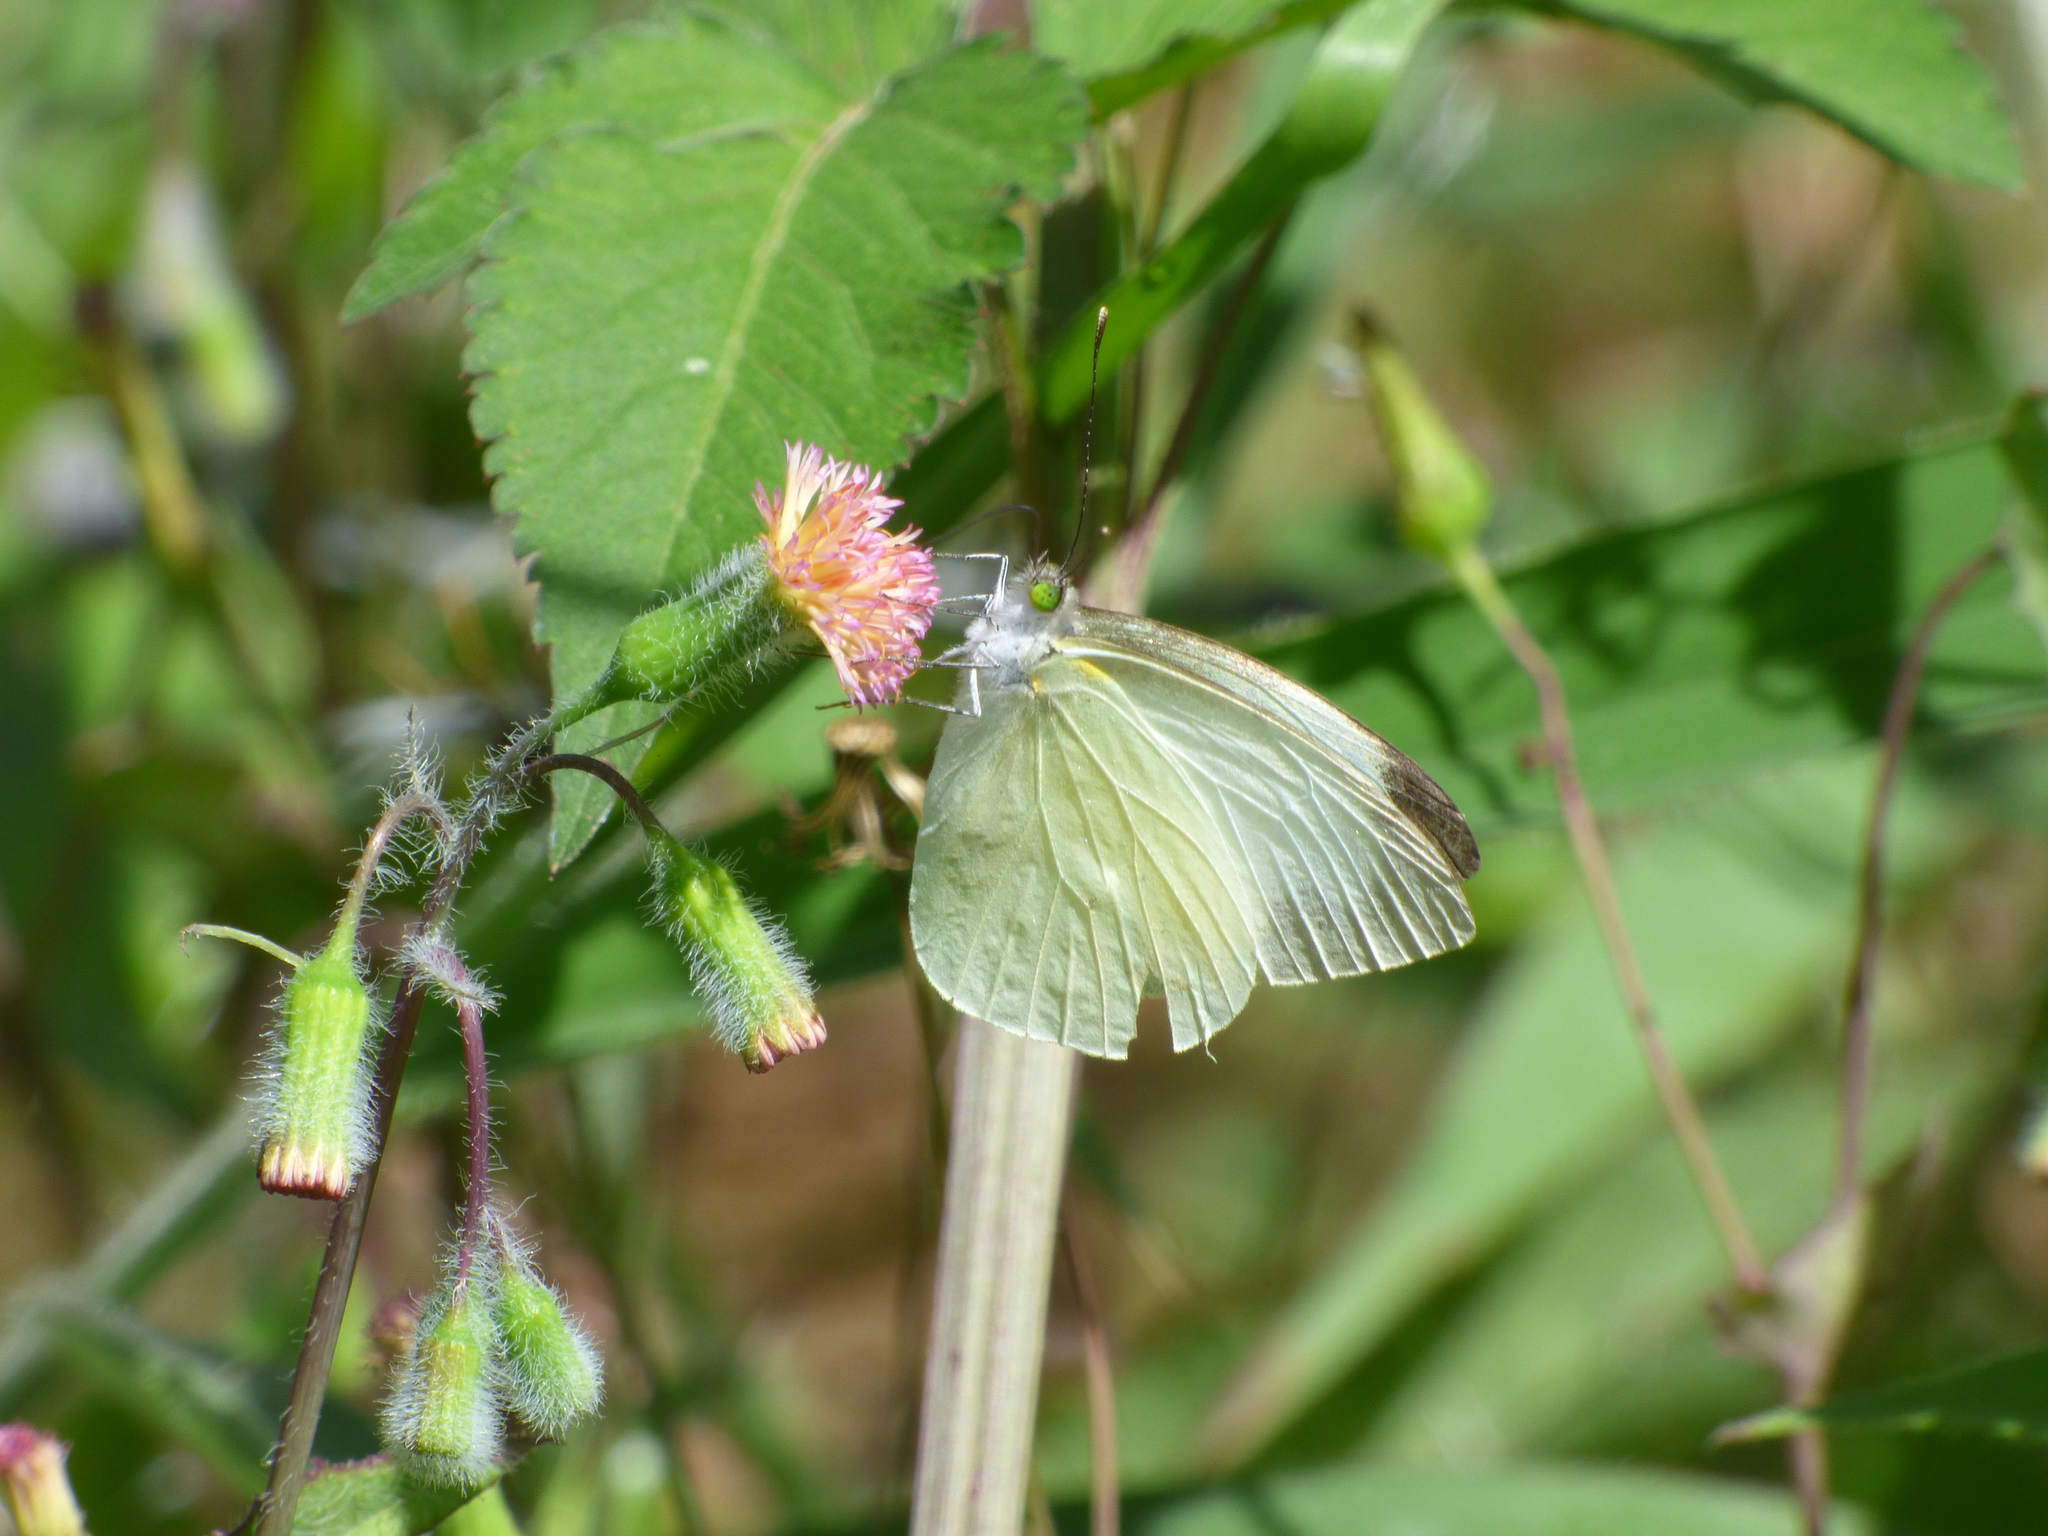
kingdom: Animalia
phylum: Arthropoda
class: Insecta
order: Lepidoptera
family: Pieridae
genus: Leptophobia
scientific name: Leptophobia aripa
